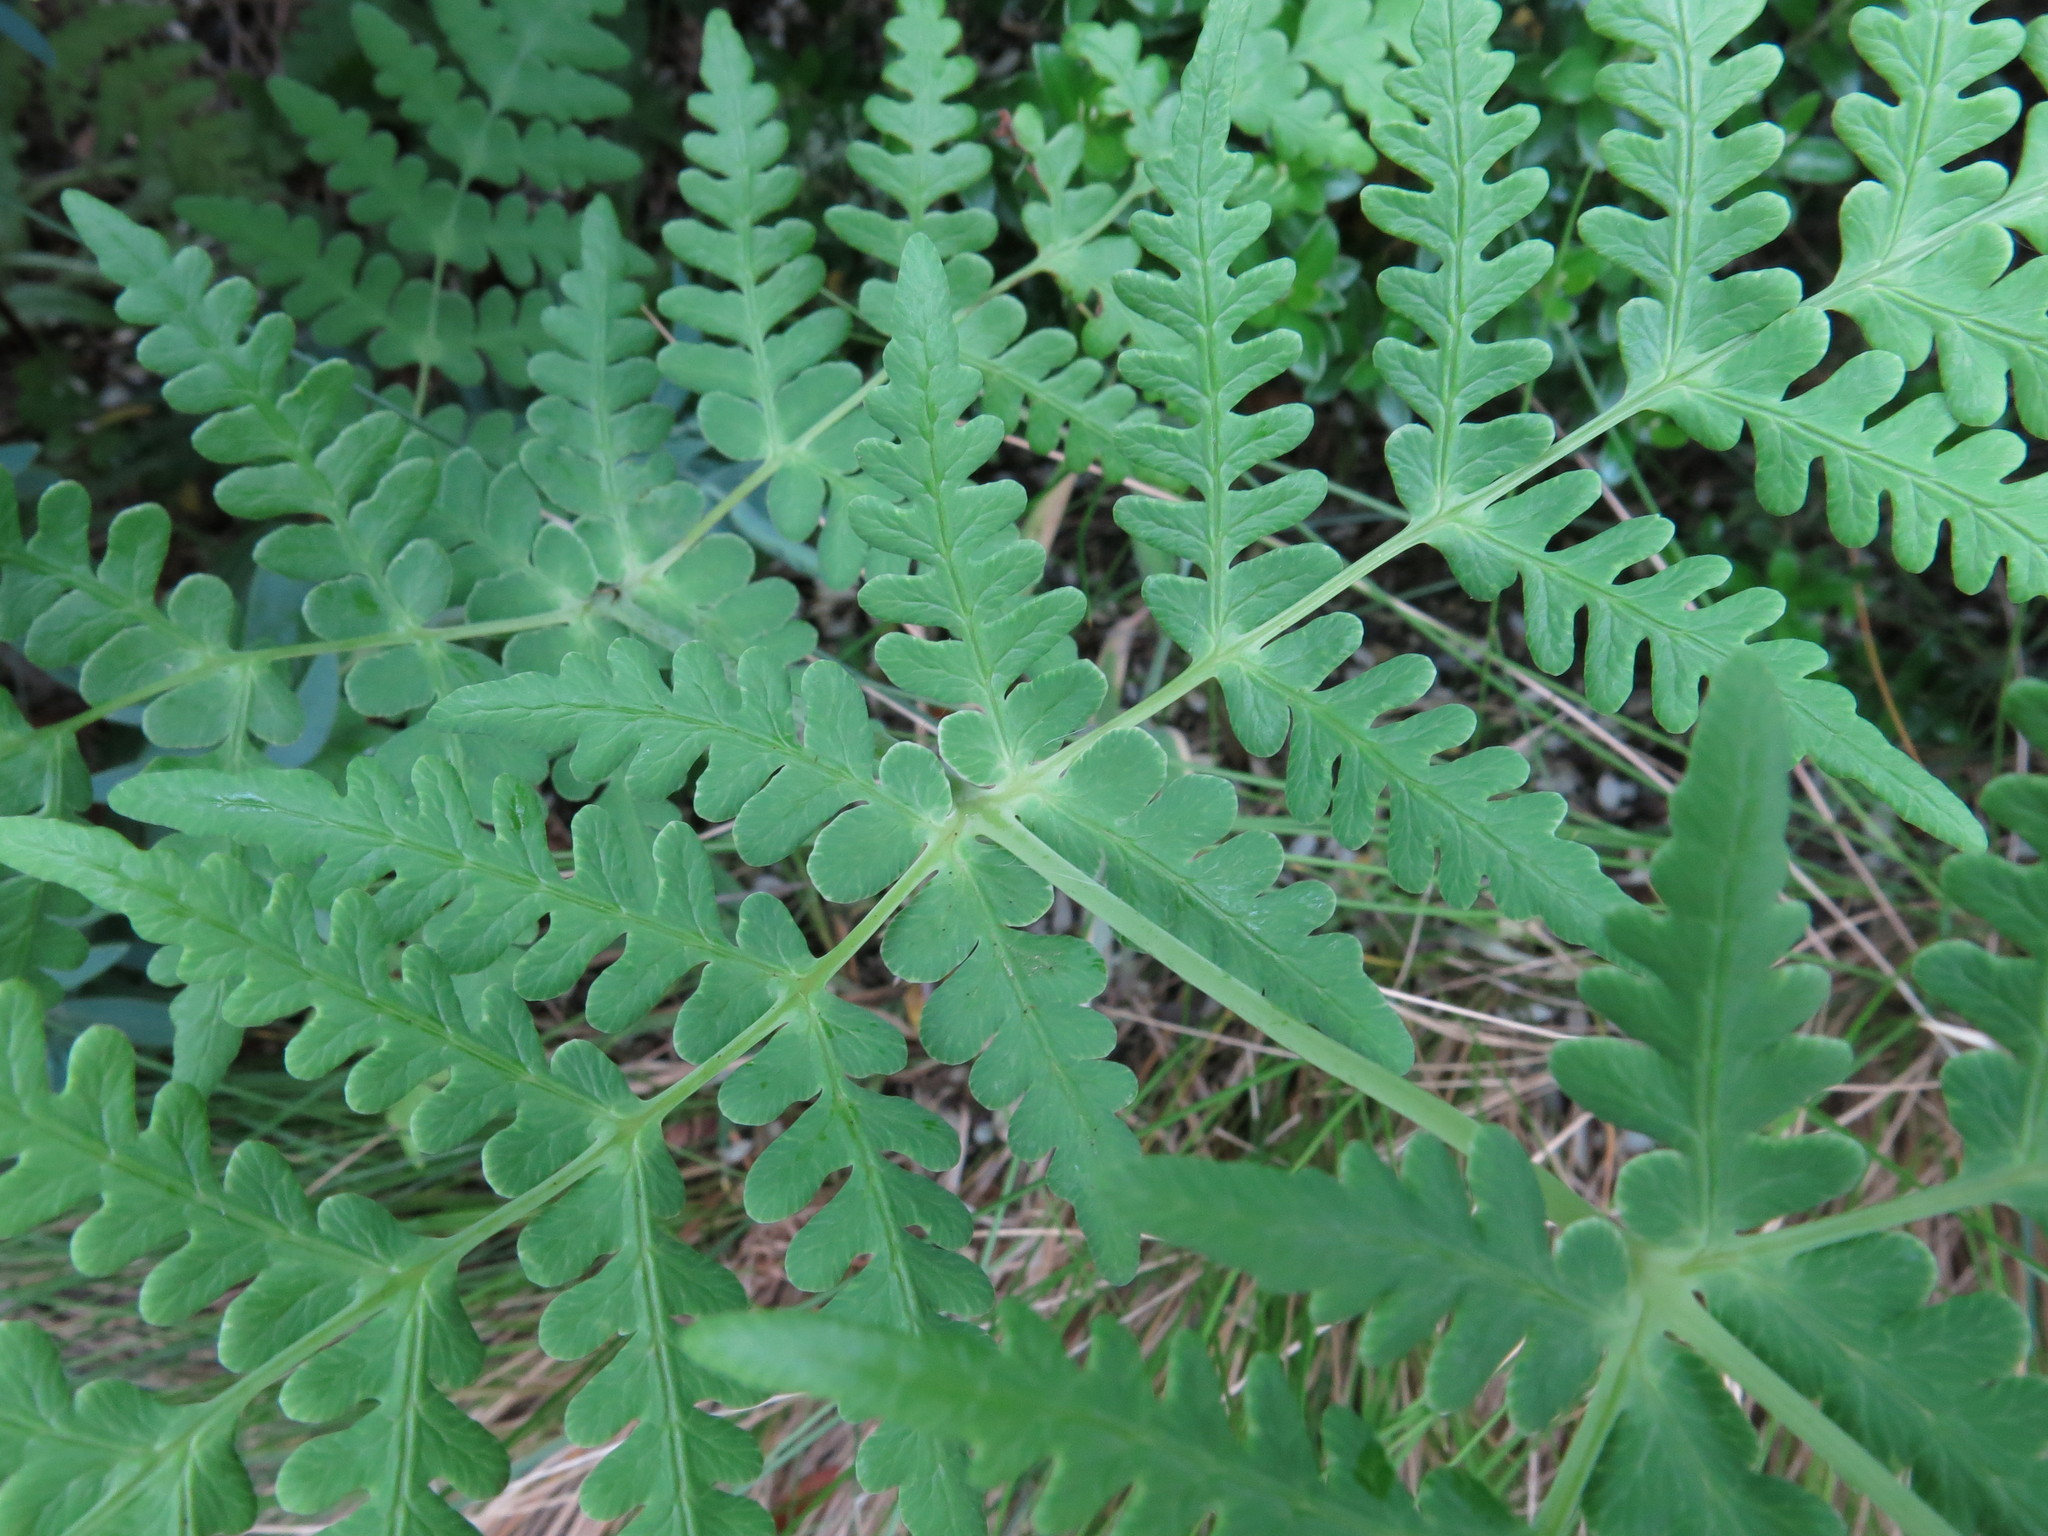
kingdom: Plantae
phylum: Tracheophyta
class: Polypodiopsida
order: Polypodiales
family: Dennstaedtiaceae
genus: Histiopteris
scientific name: Histiopteris incisa
